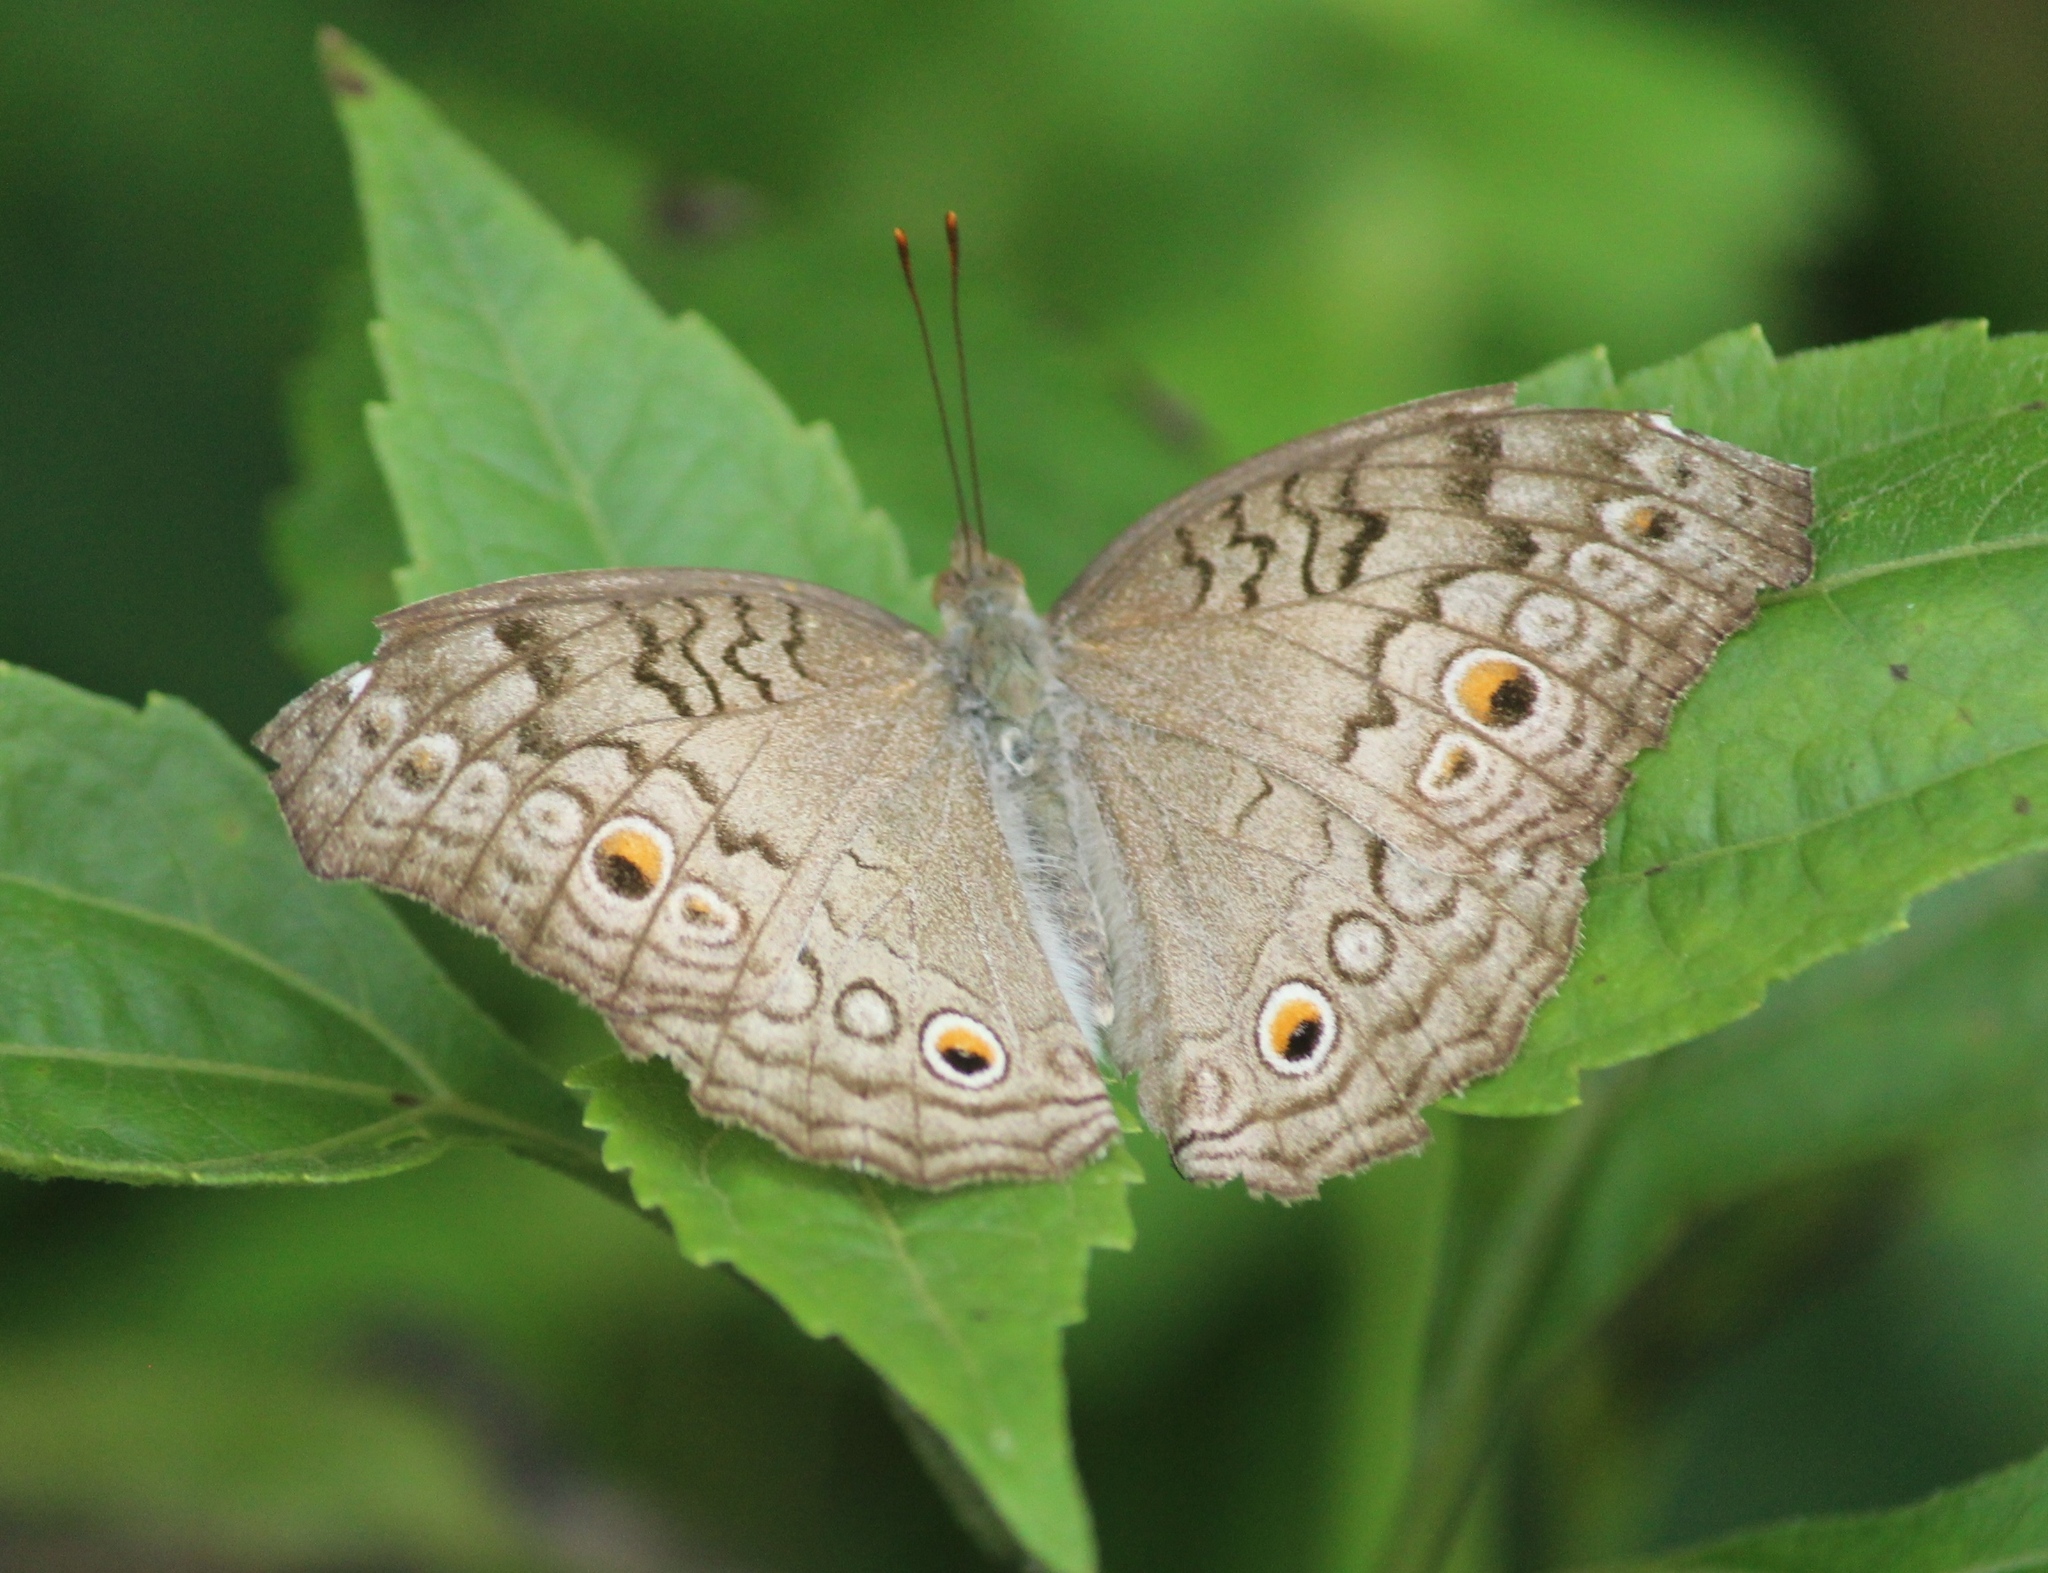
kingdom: Animalia
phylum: Arthropoda
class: Insecta
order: Lepidoptera
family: Nymphalidae
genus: Junonia
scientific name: Junonia atlites
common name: Grey pansy
